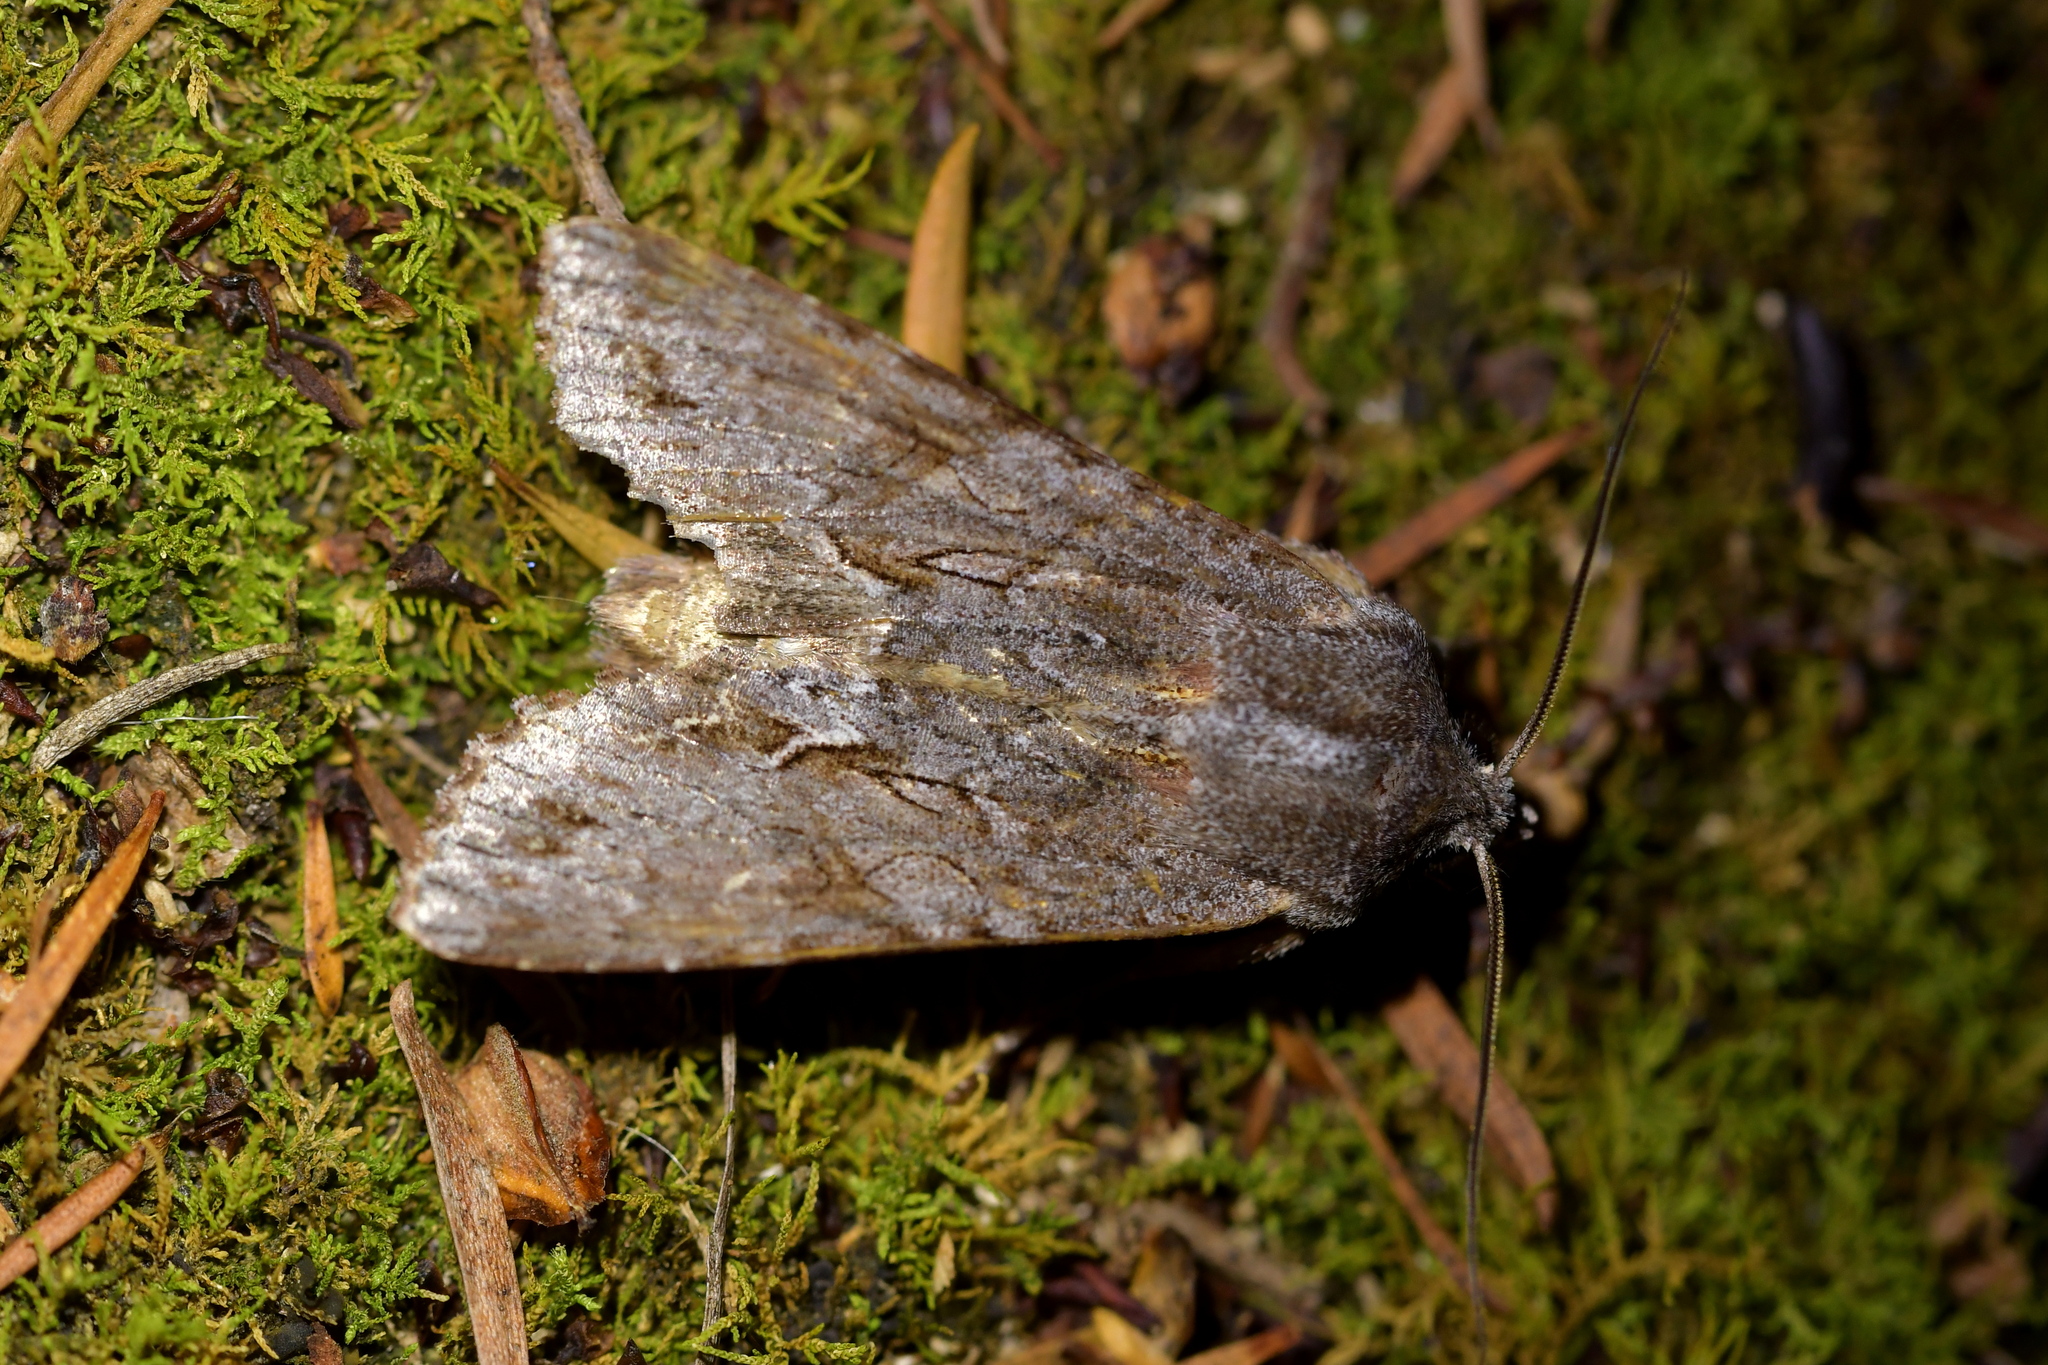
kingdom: Animalia
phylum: Arthropoda
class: Insecta
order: Lepidoptera
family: Noctuidae
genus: Ichneutica
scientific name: Ichneutica
